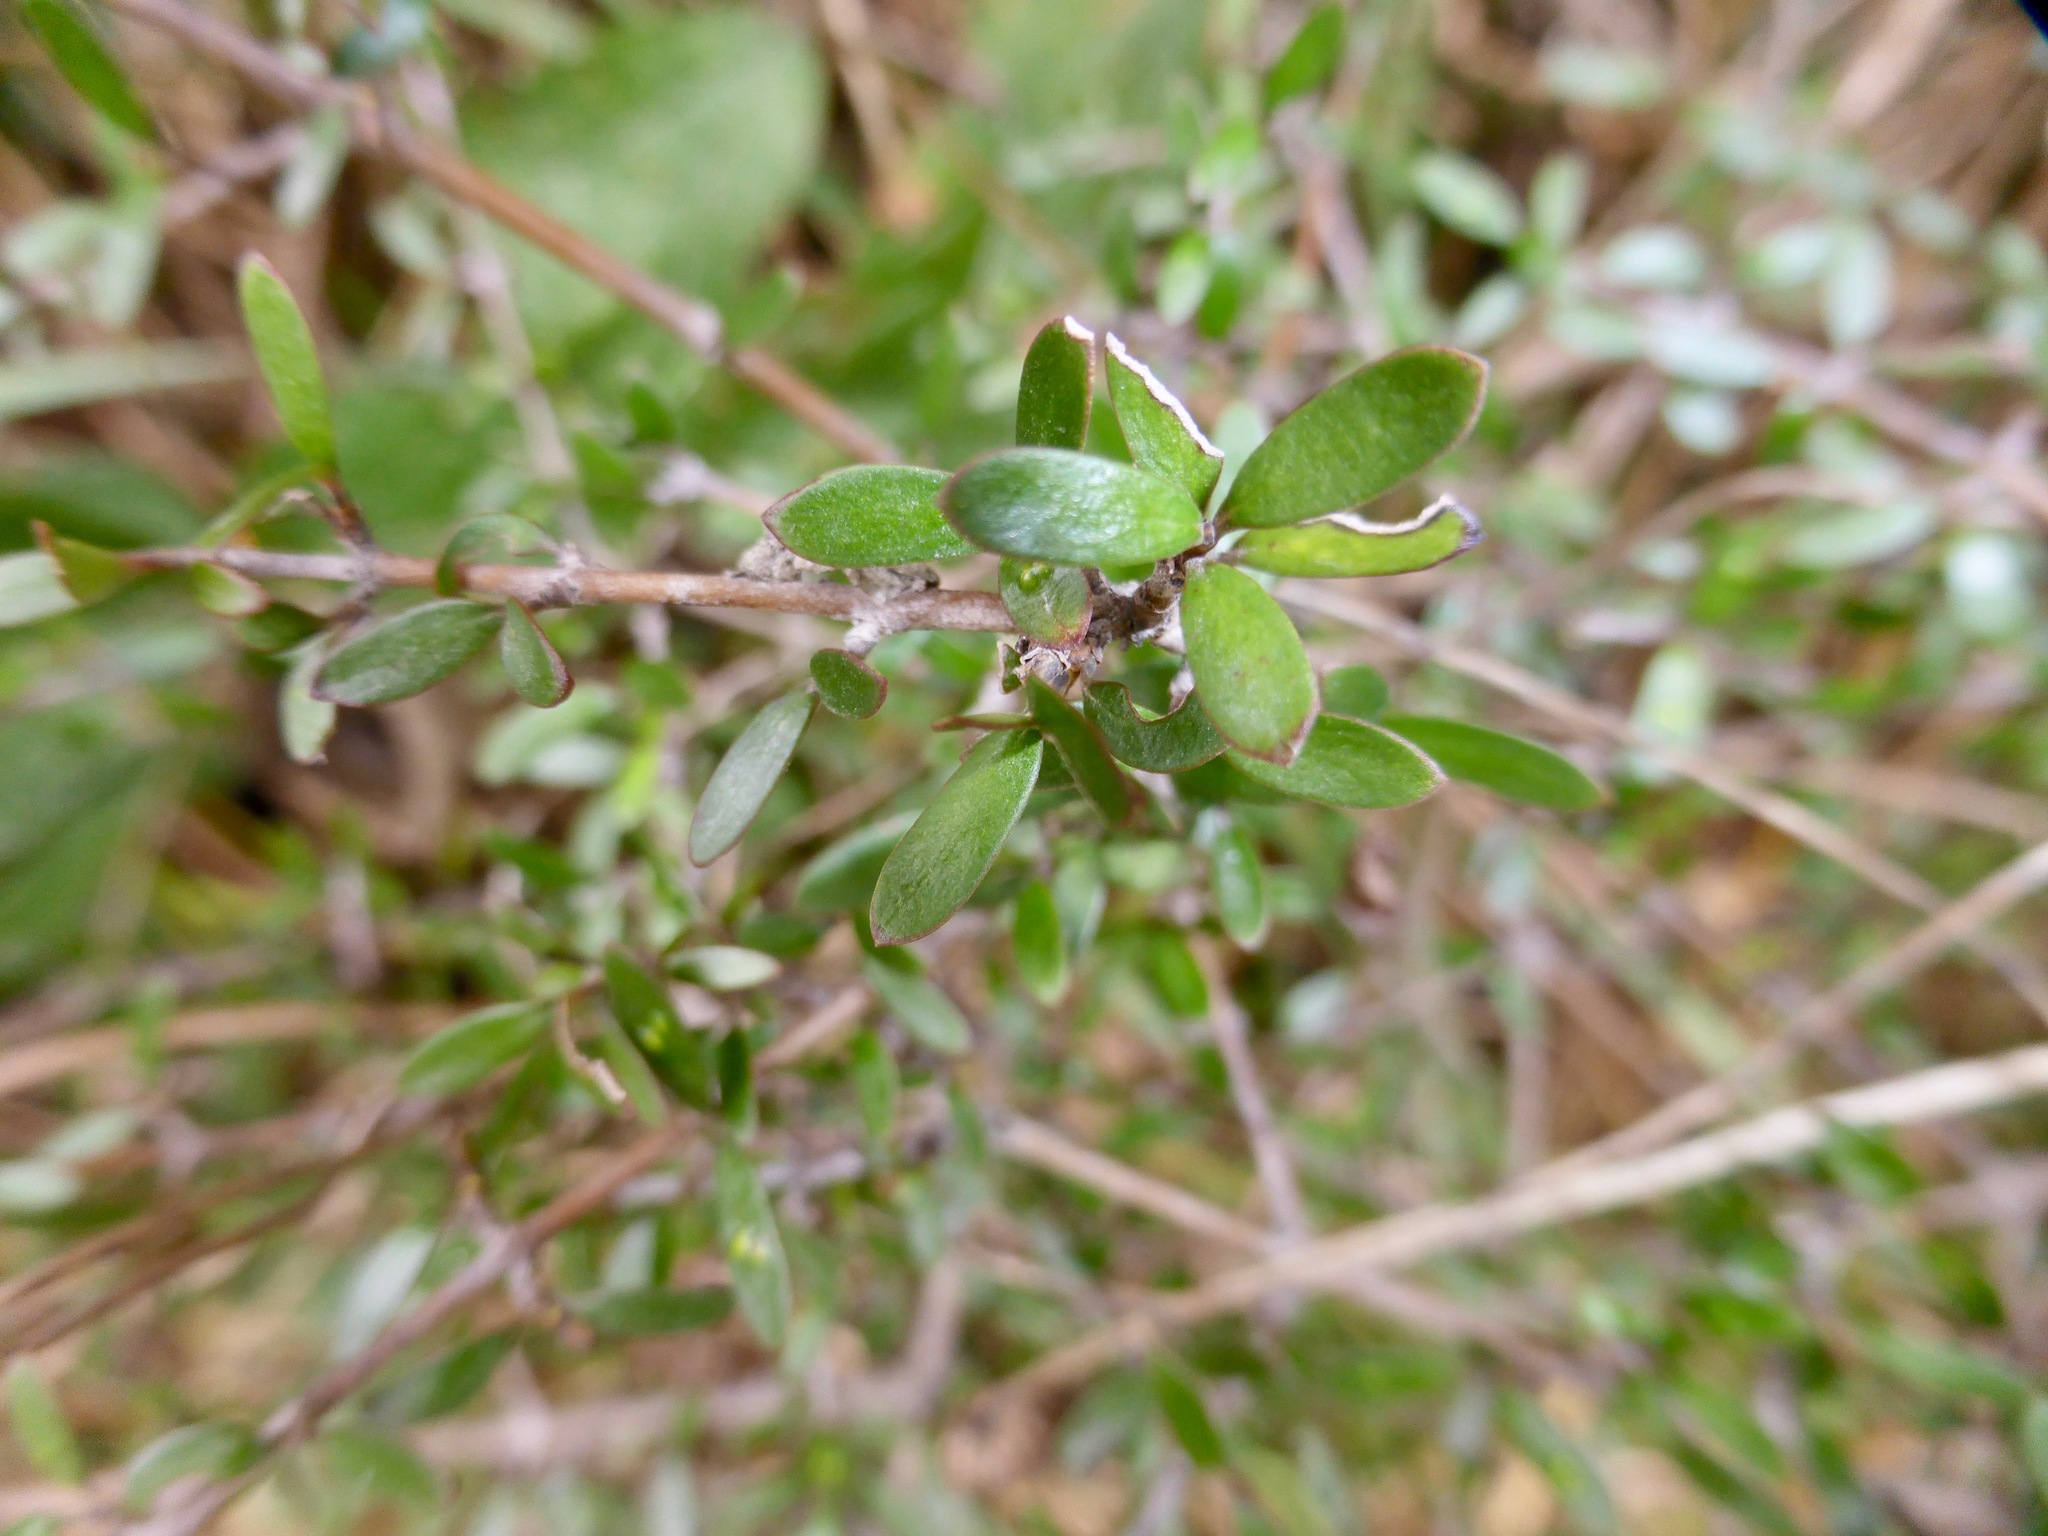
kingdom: Plantae
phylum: Tracheophyta
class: Magnoliopsida
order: Gentianales
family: Rubiaceae
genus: Coprosma
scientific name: Coprosma propinqua
